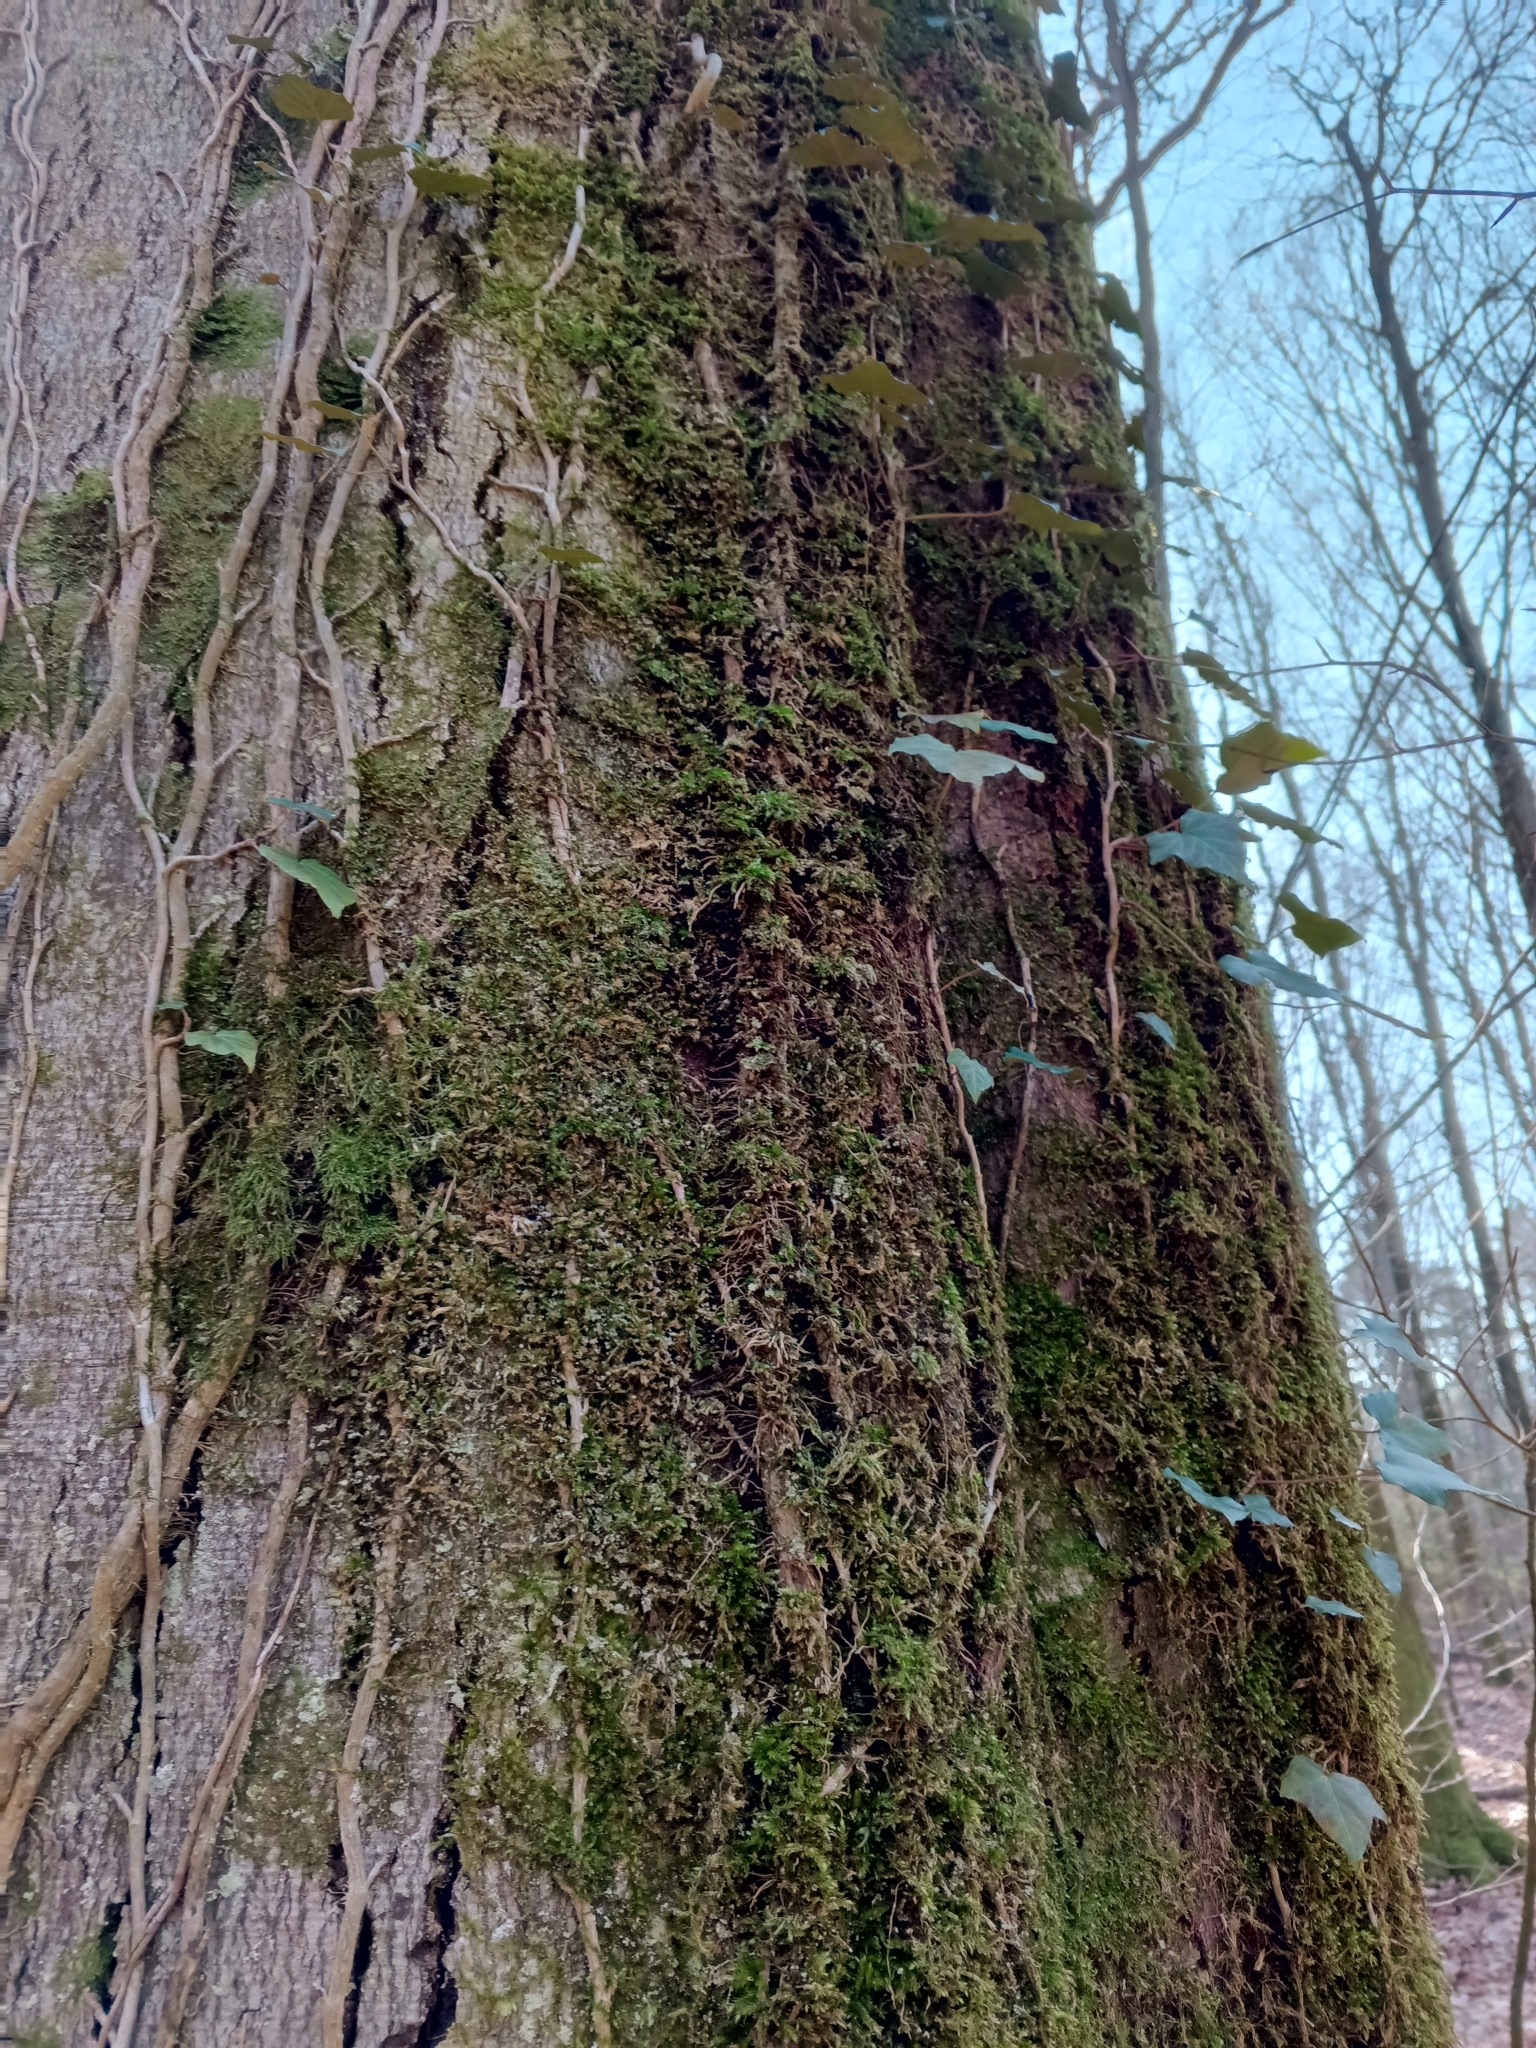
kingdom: Plantae
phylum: Tracheophyta
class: Magnoliopsida
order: Apiales
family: Araliaceae
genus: Hedera
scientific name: Hedera helix
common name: Ivy
